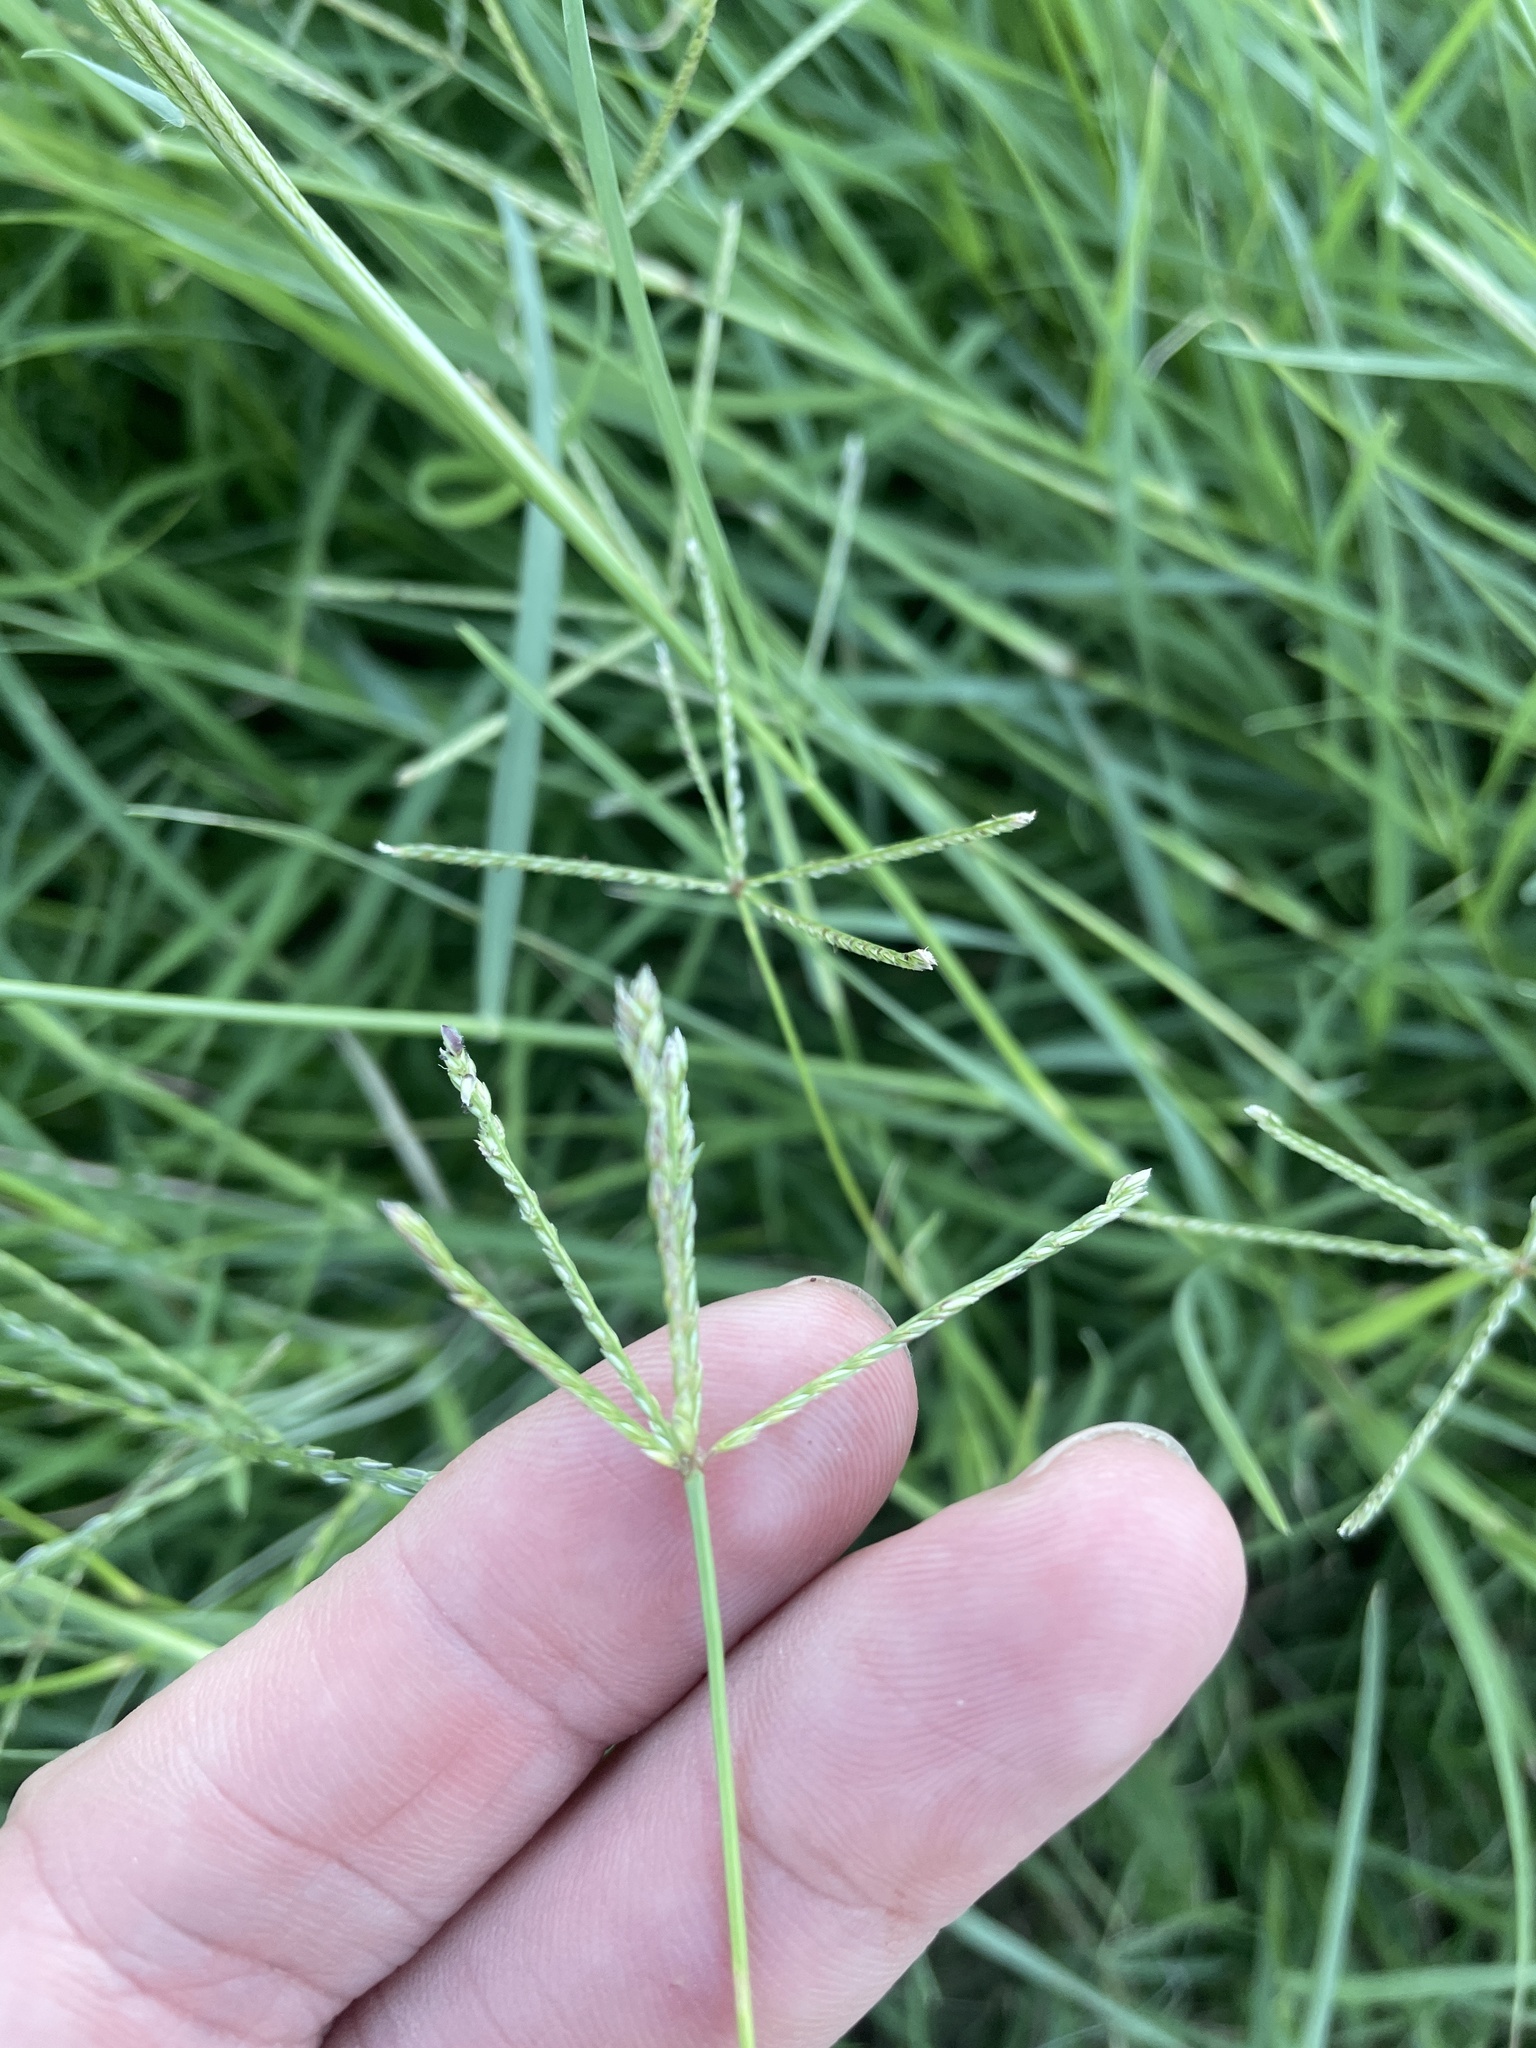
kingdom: Plantae
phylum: Tracheophyta
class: Liliopsida
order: Poales
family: Poaceae
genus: Cynodon
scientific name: Cynodon dactylon
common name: Bermuda grass
